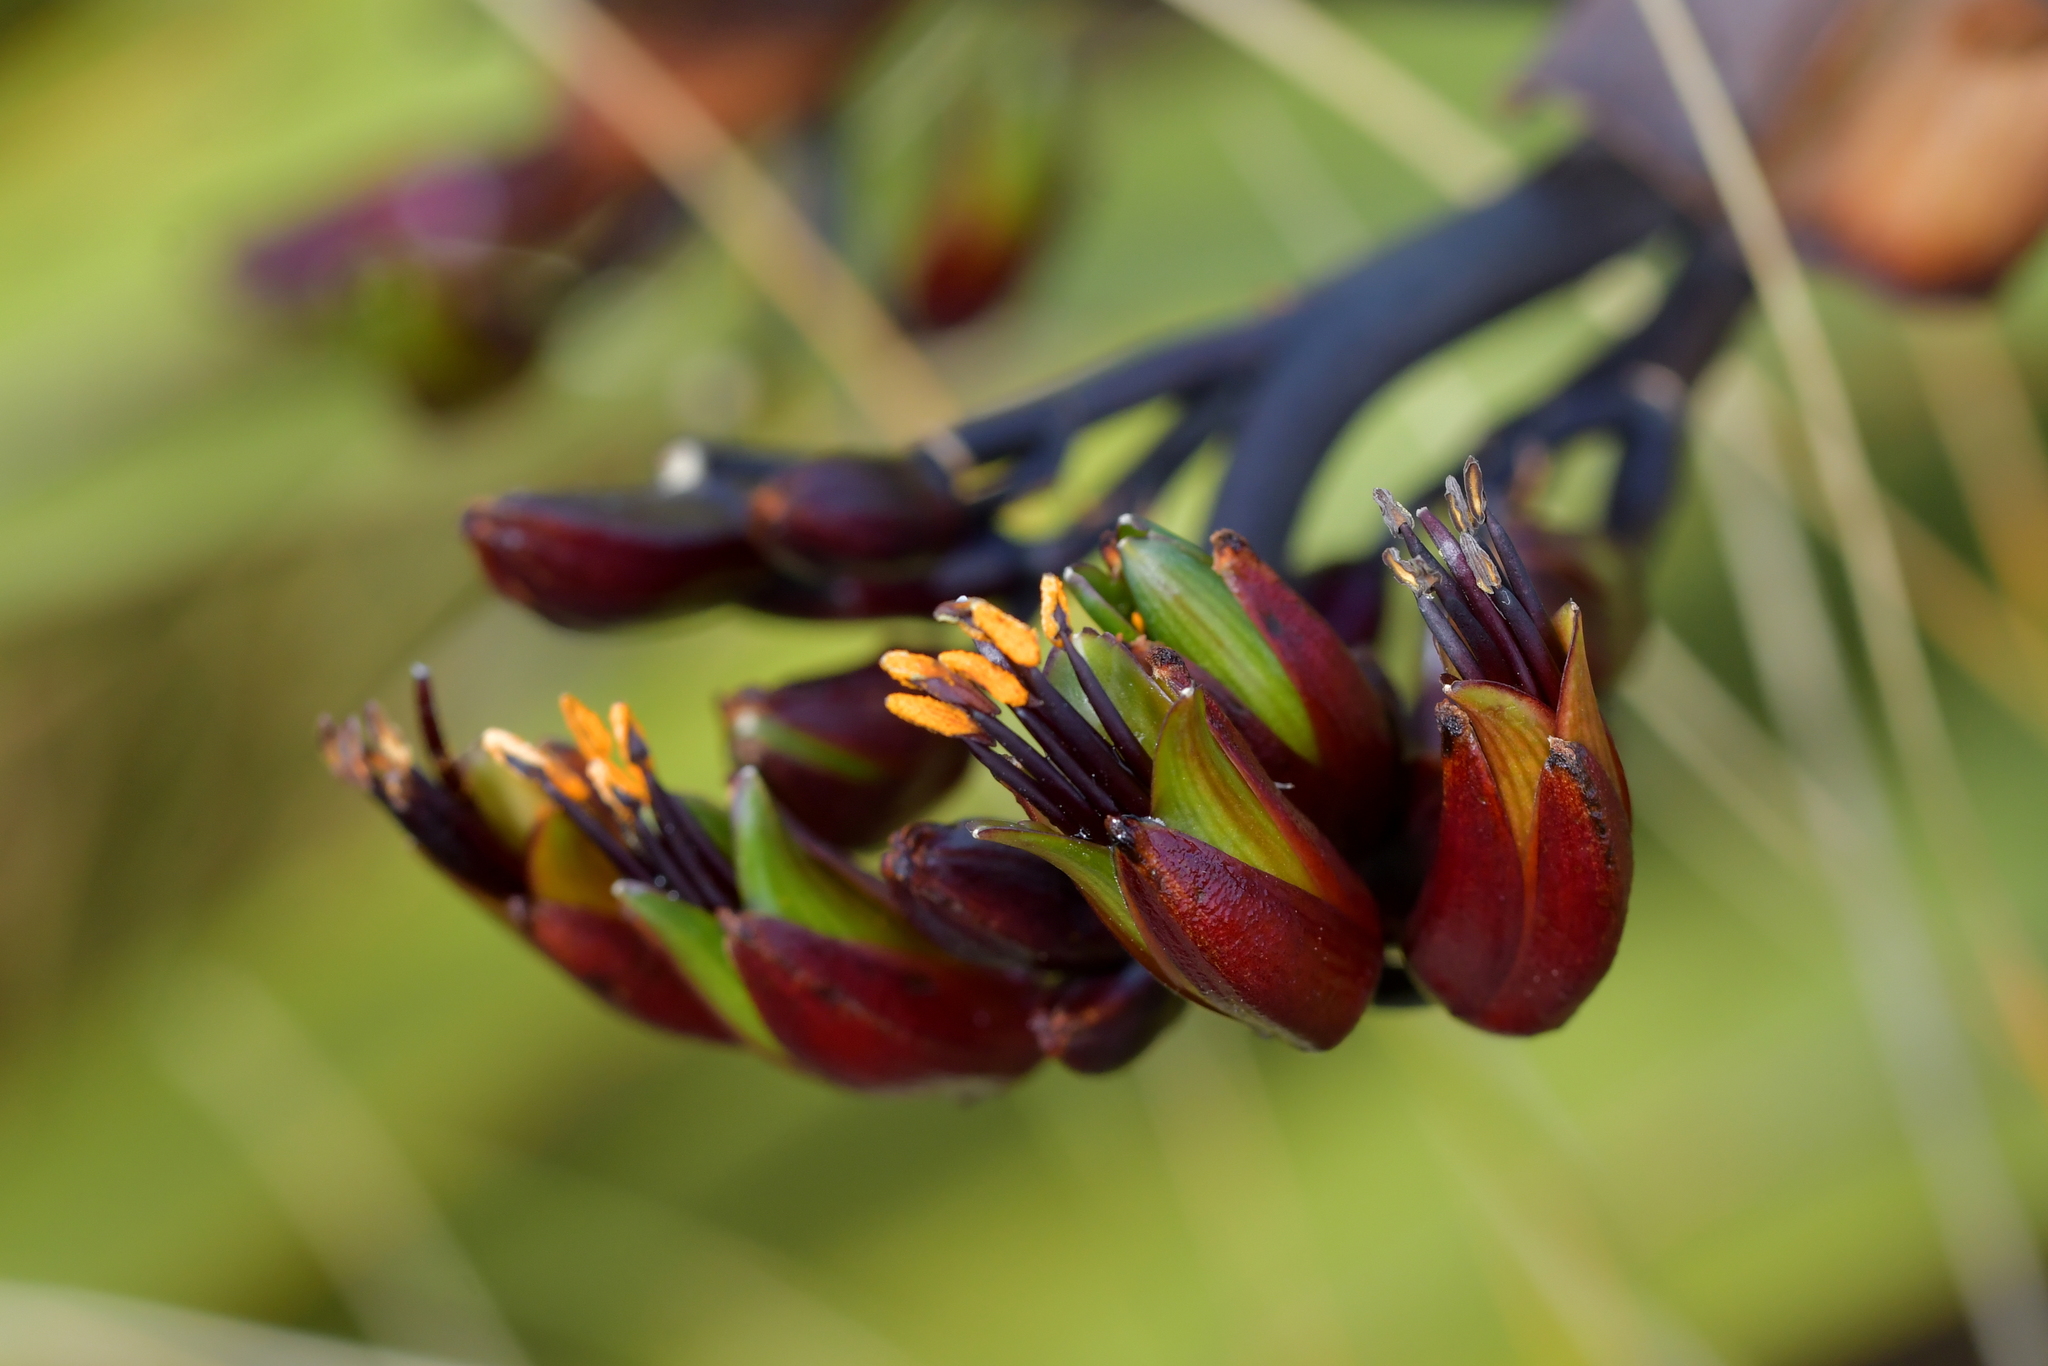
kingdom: Plantae
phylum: Tracheophyta
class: Liliopsida
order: Asparagales
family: Asphodelaceae
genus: Phormium
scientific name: Phormium colensoi
